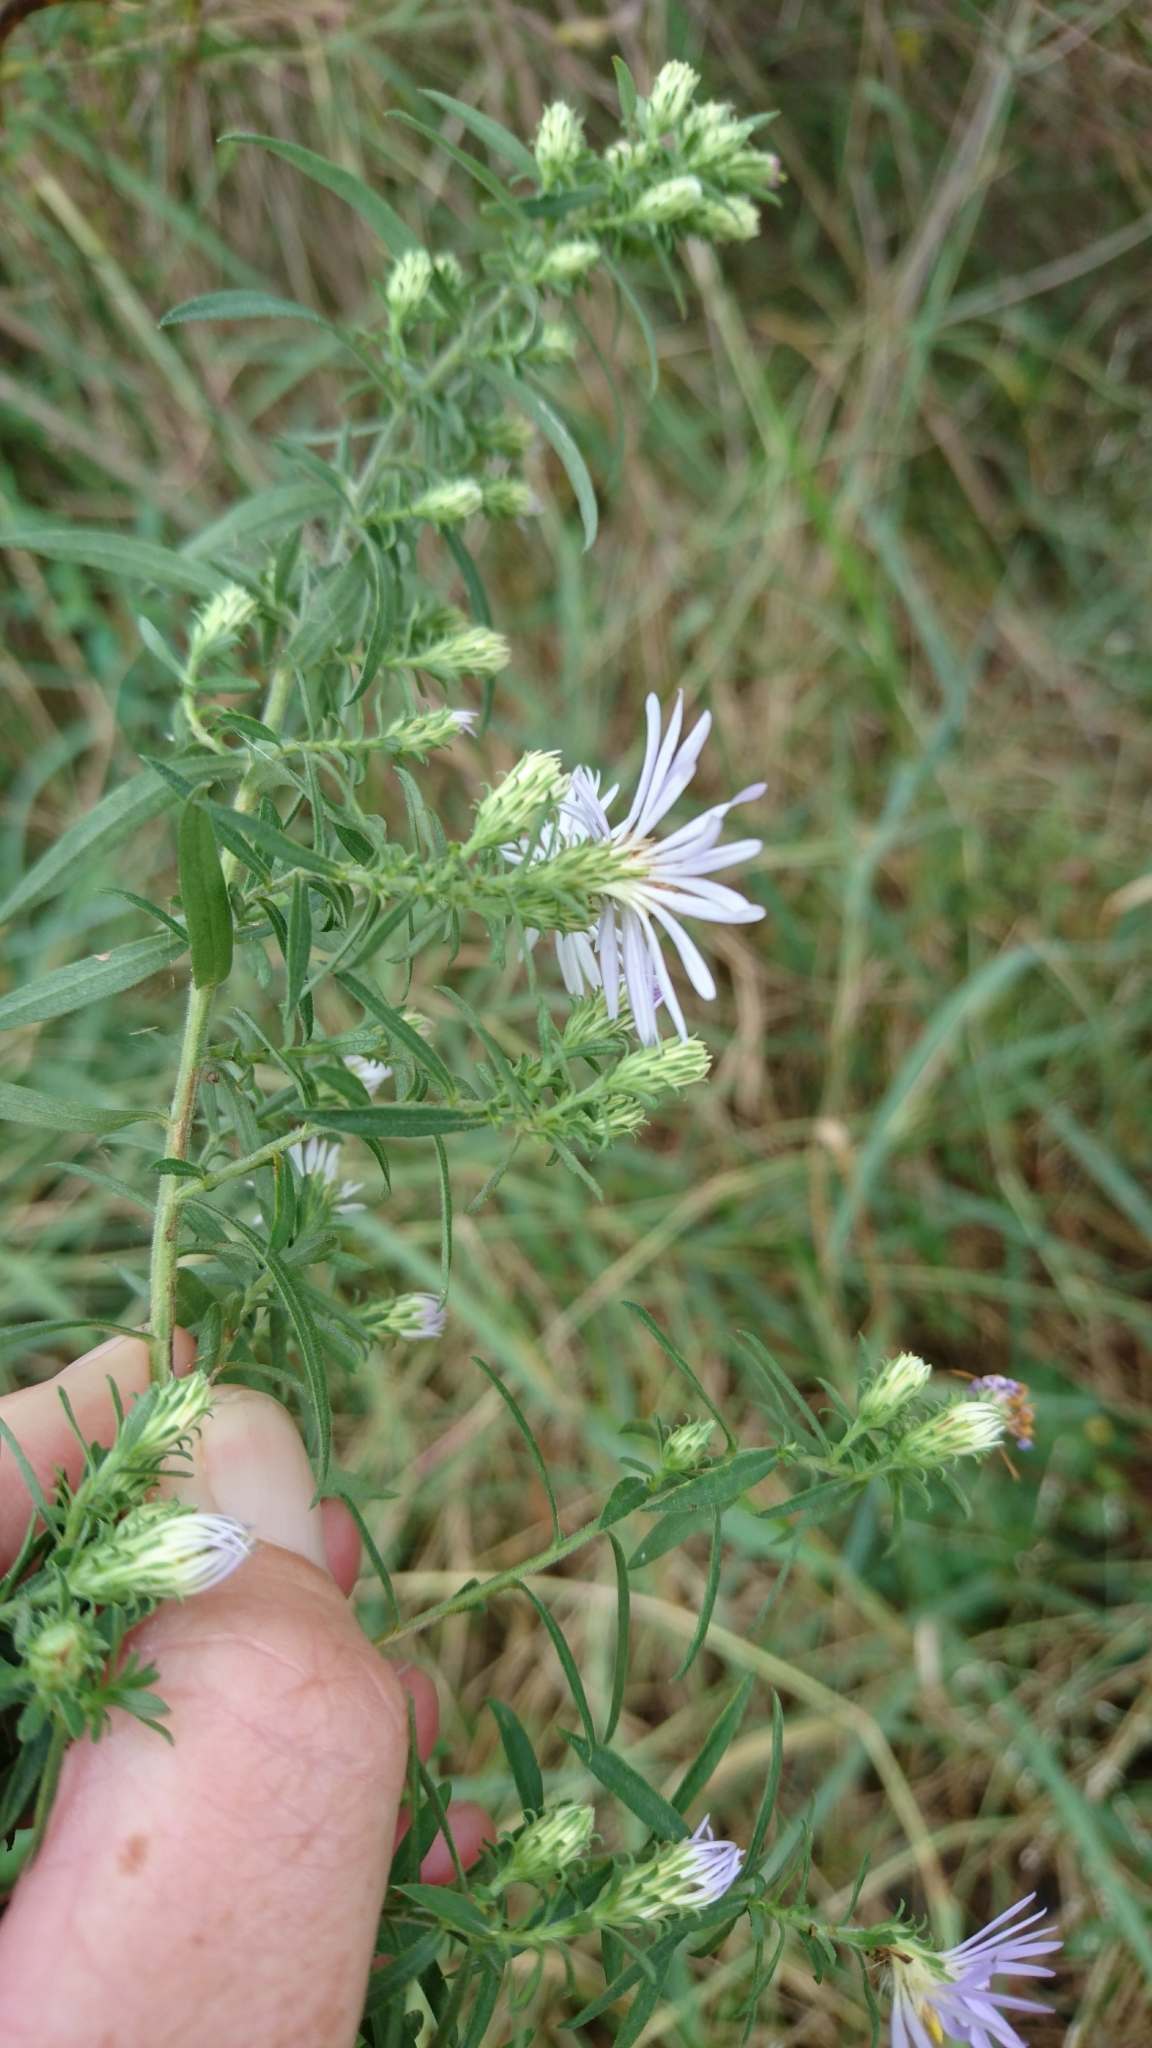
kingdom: Plantae
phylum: Tracheophyta
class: Magnoliopsida
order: Asterales
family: Asteraceae
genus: Symphyotrichum
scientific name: Symphyotrichum praealtum
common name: Willow aster
